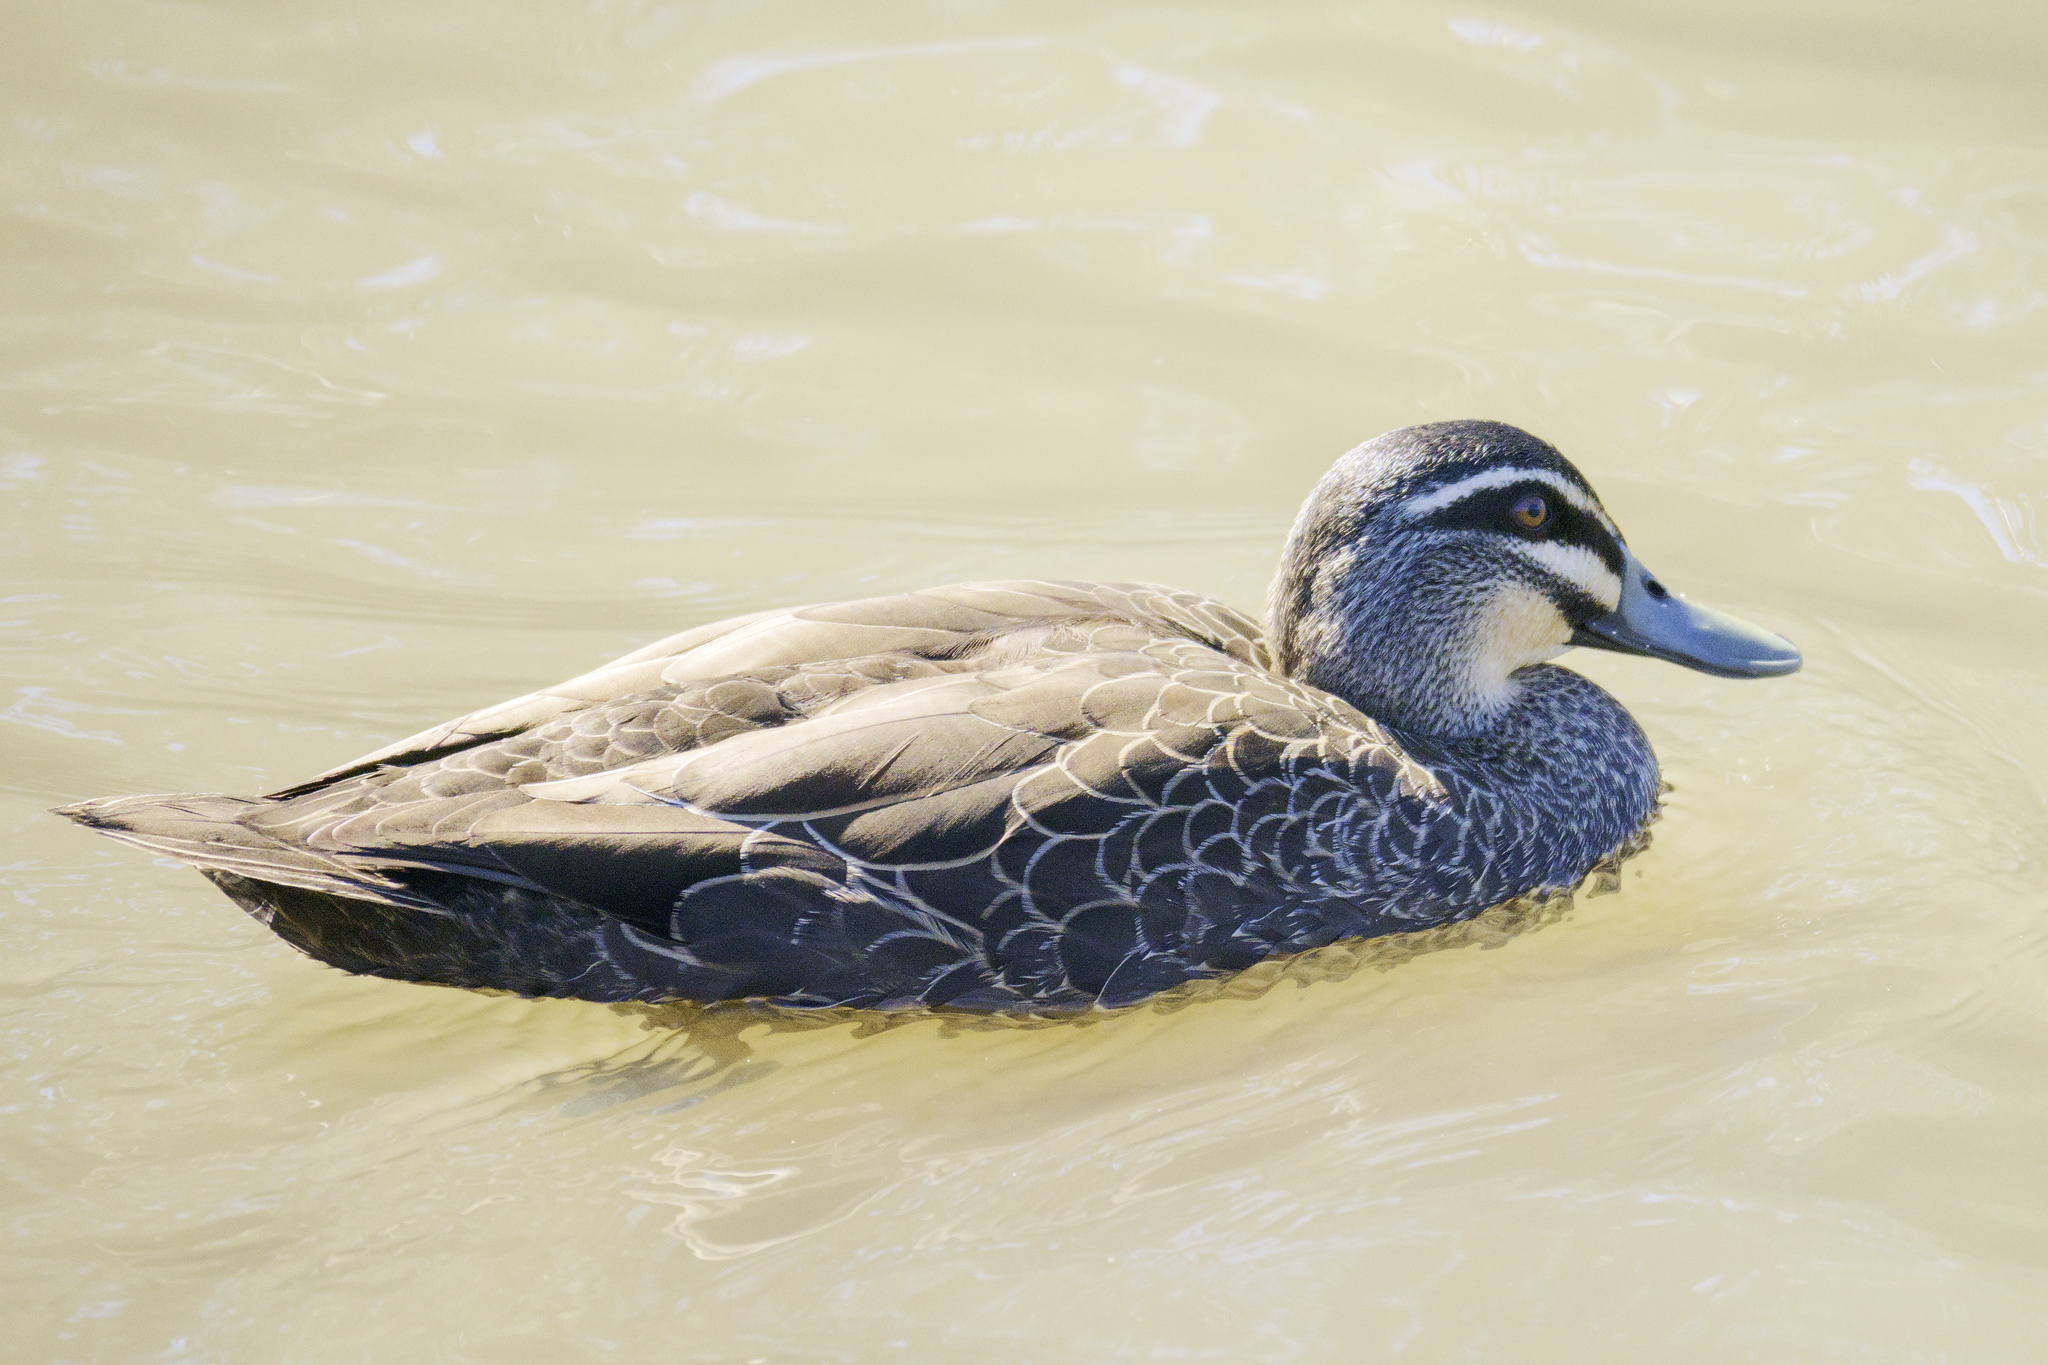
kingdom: Animalia
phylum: Chordata
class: Aves
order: Anseriformes
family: Anatidae
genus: Anas
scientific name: Anas superciliosa
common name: Pacific black duck
